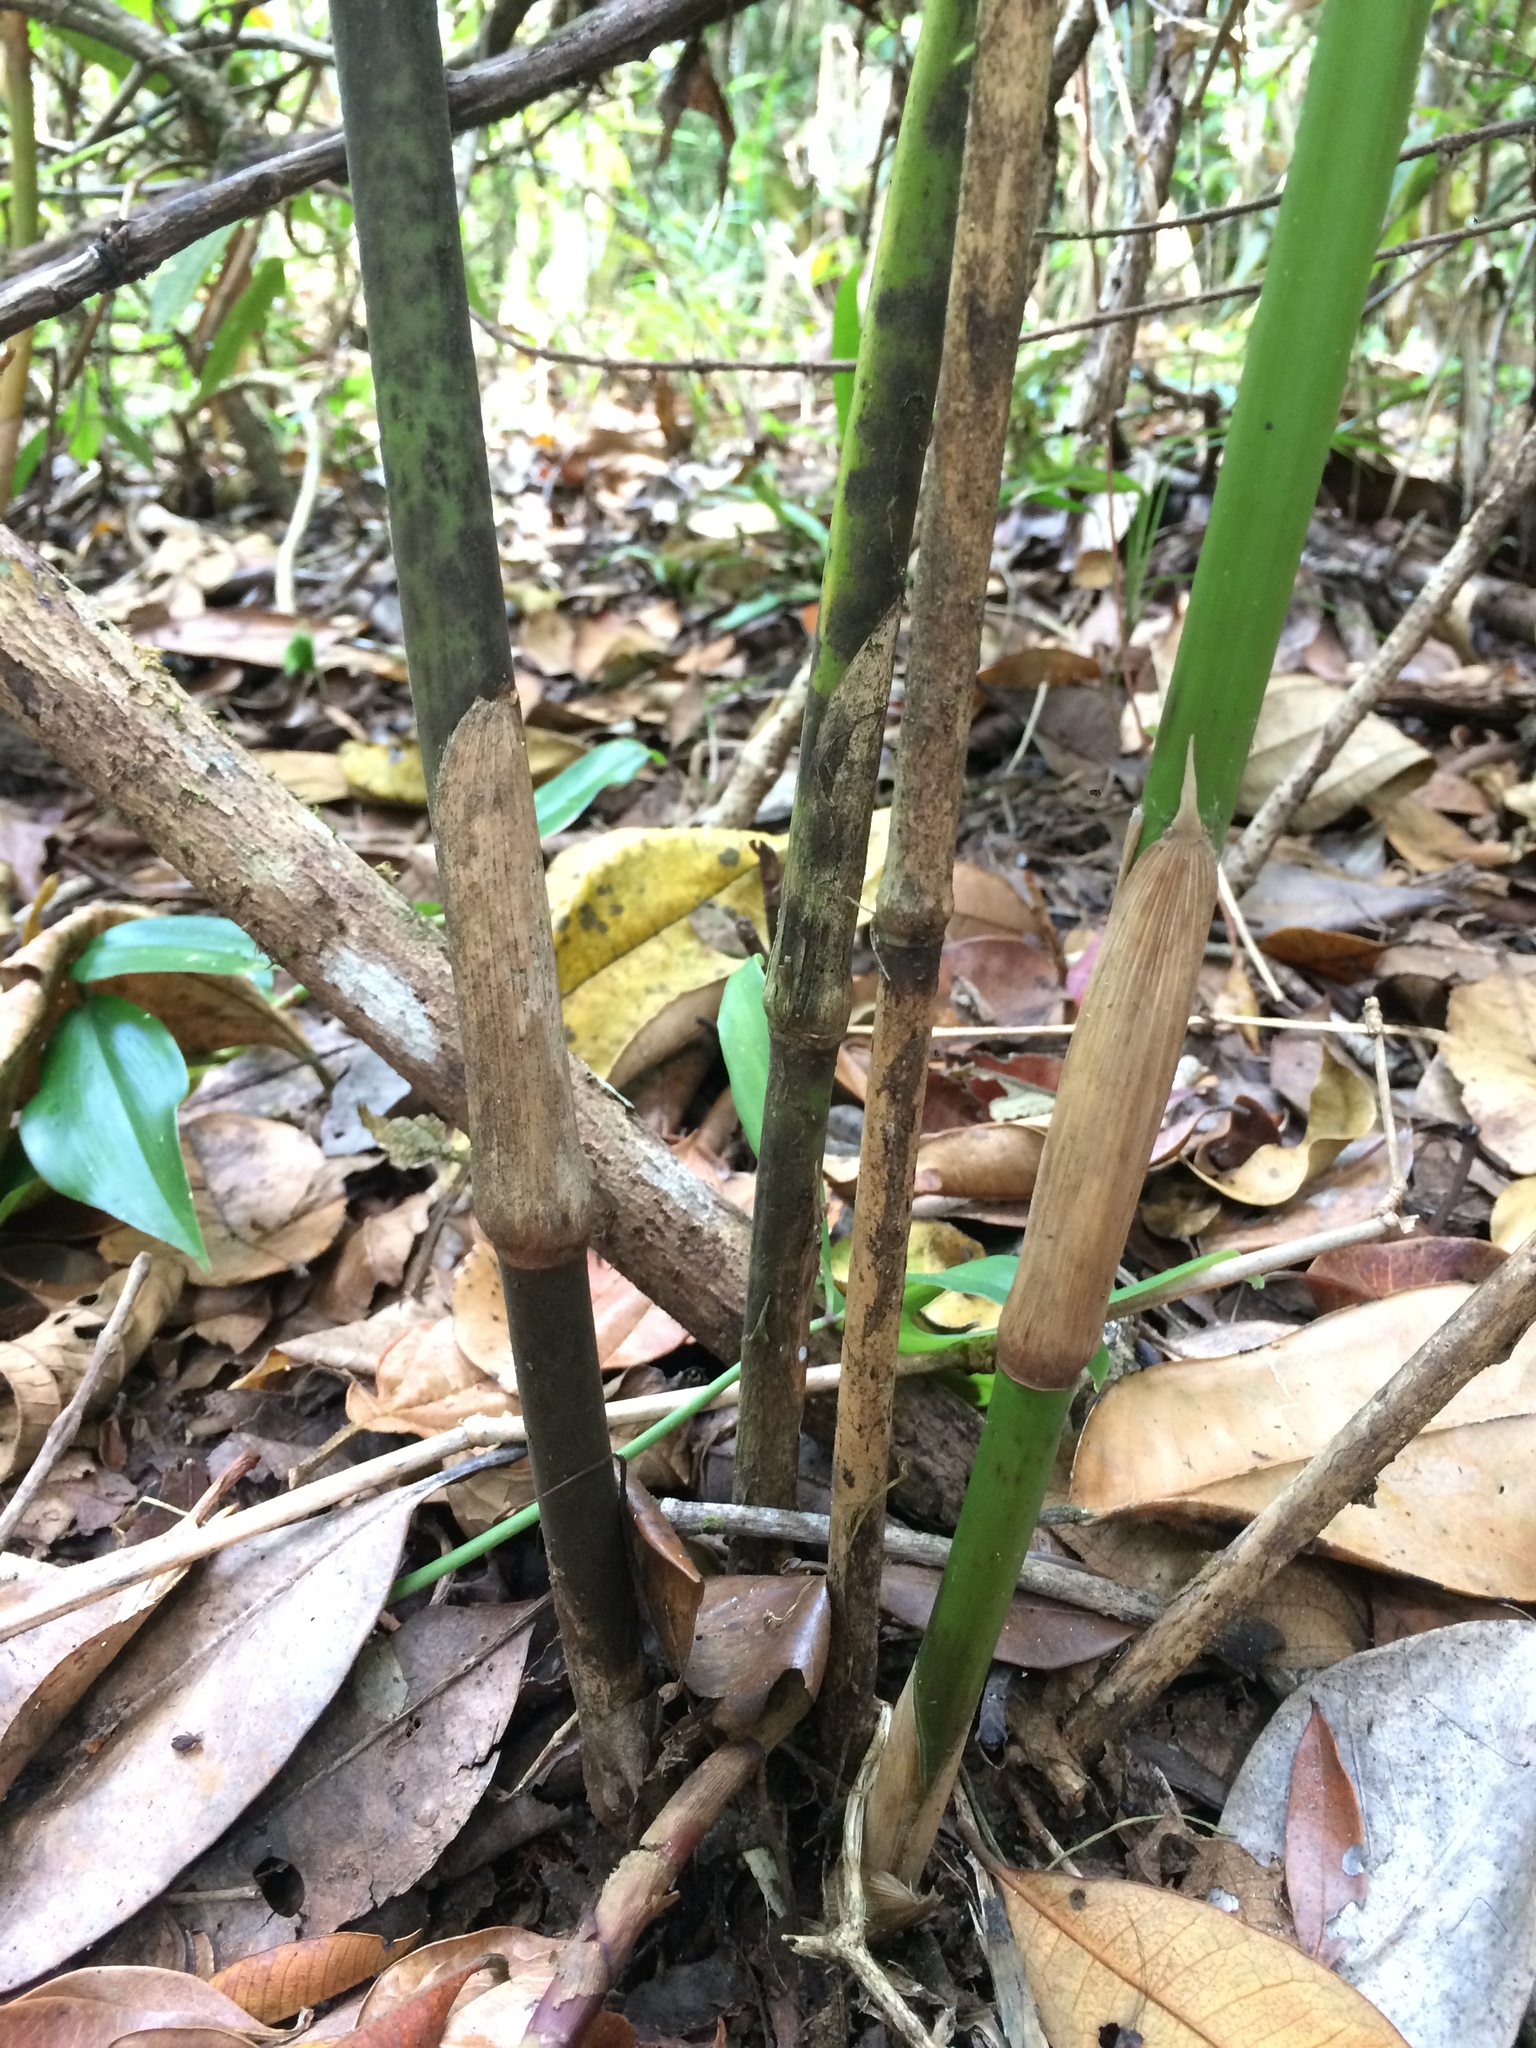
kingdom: Plantae
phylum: Tracheophyta
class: Liliopsida
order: Poales
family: Poaceae
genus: Lasiacis
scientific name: Lasiacis ligulata
